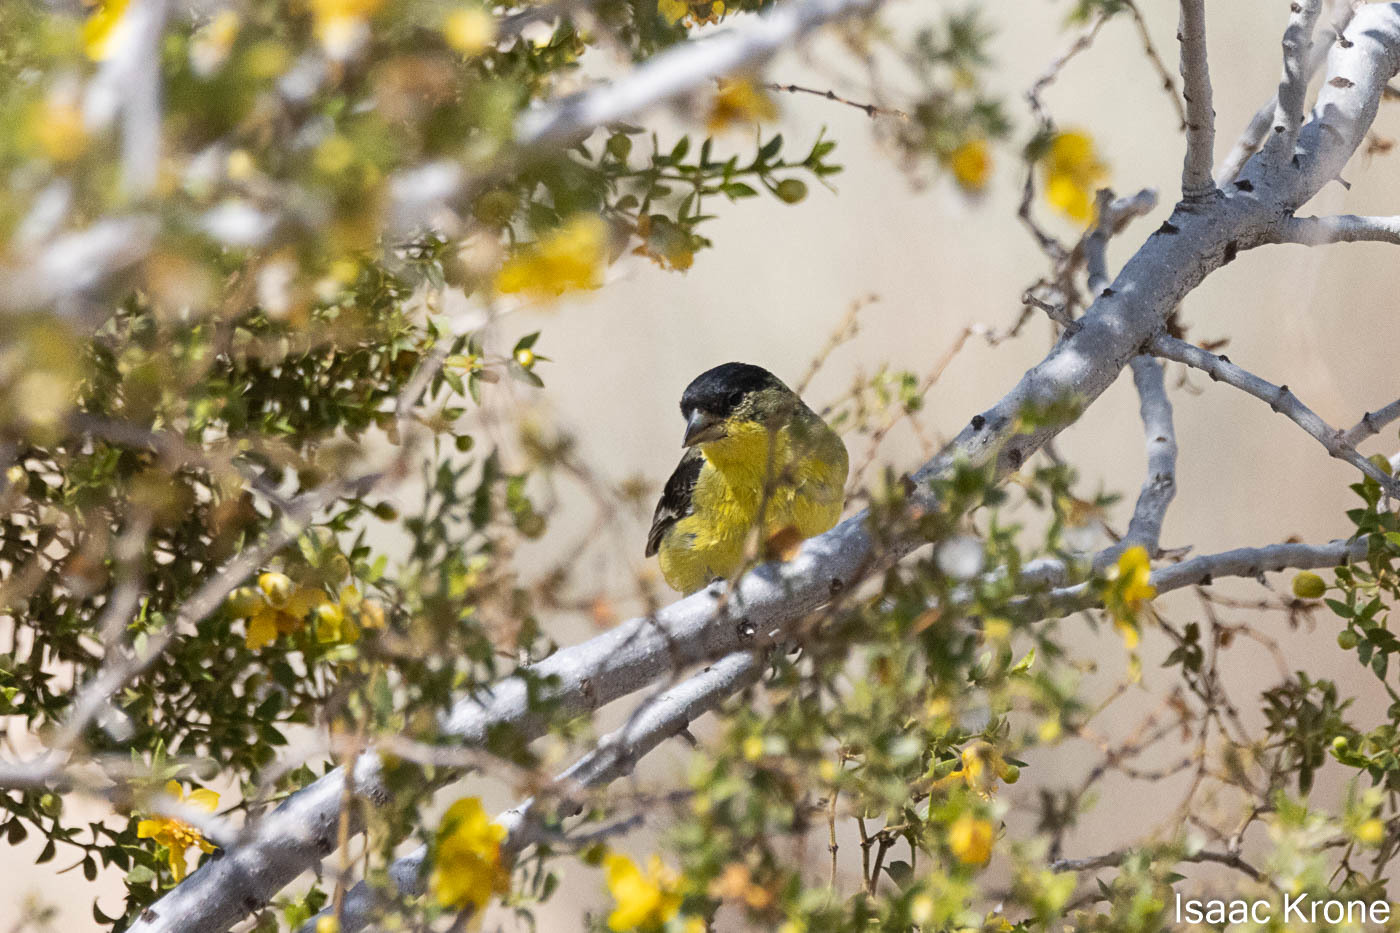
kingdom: Animalia
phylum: Chordata
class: Aves
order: Passeriformes
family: Fringillidae
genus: Spinus
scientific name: Spinus psaltria
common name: Lesser goldfinch
